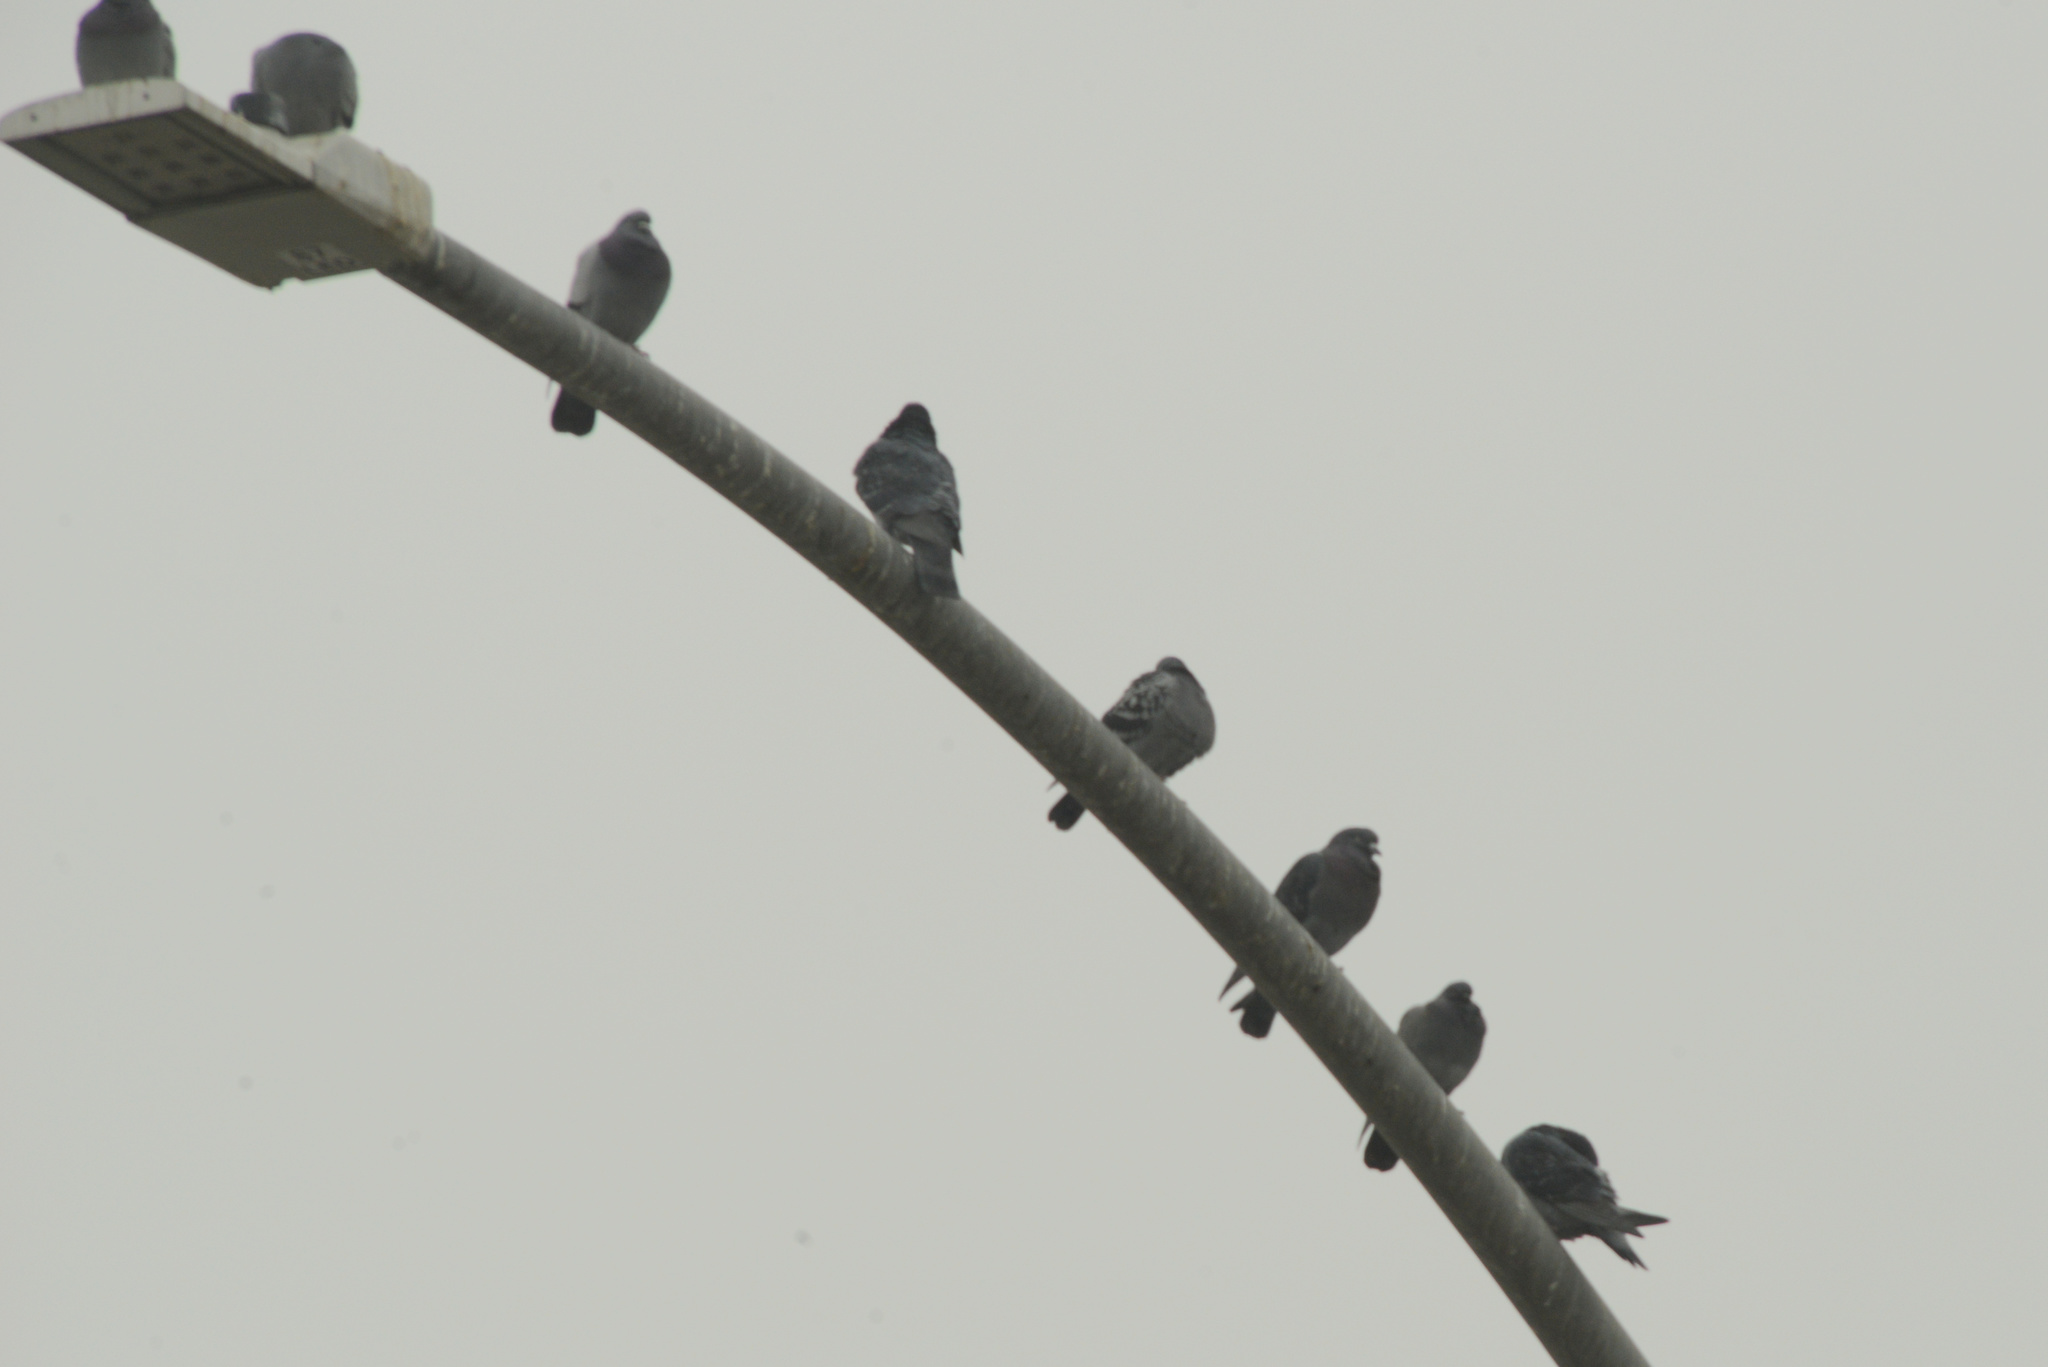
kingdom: Animalia
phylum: Chordata
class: Aves
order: Columbiformes
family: Columbidae
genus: Columba
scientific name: Columba livia
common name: Rock pigeon
